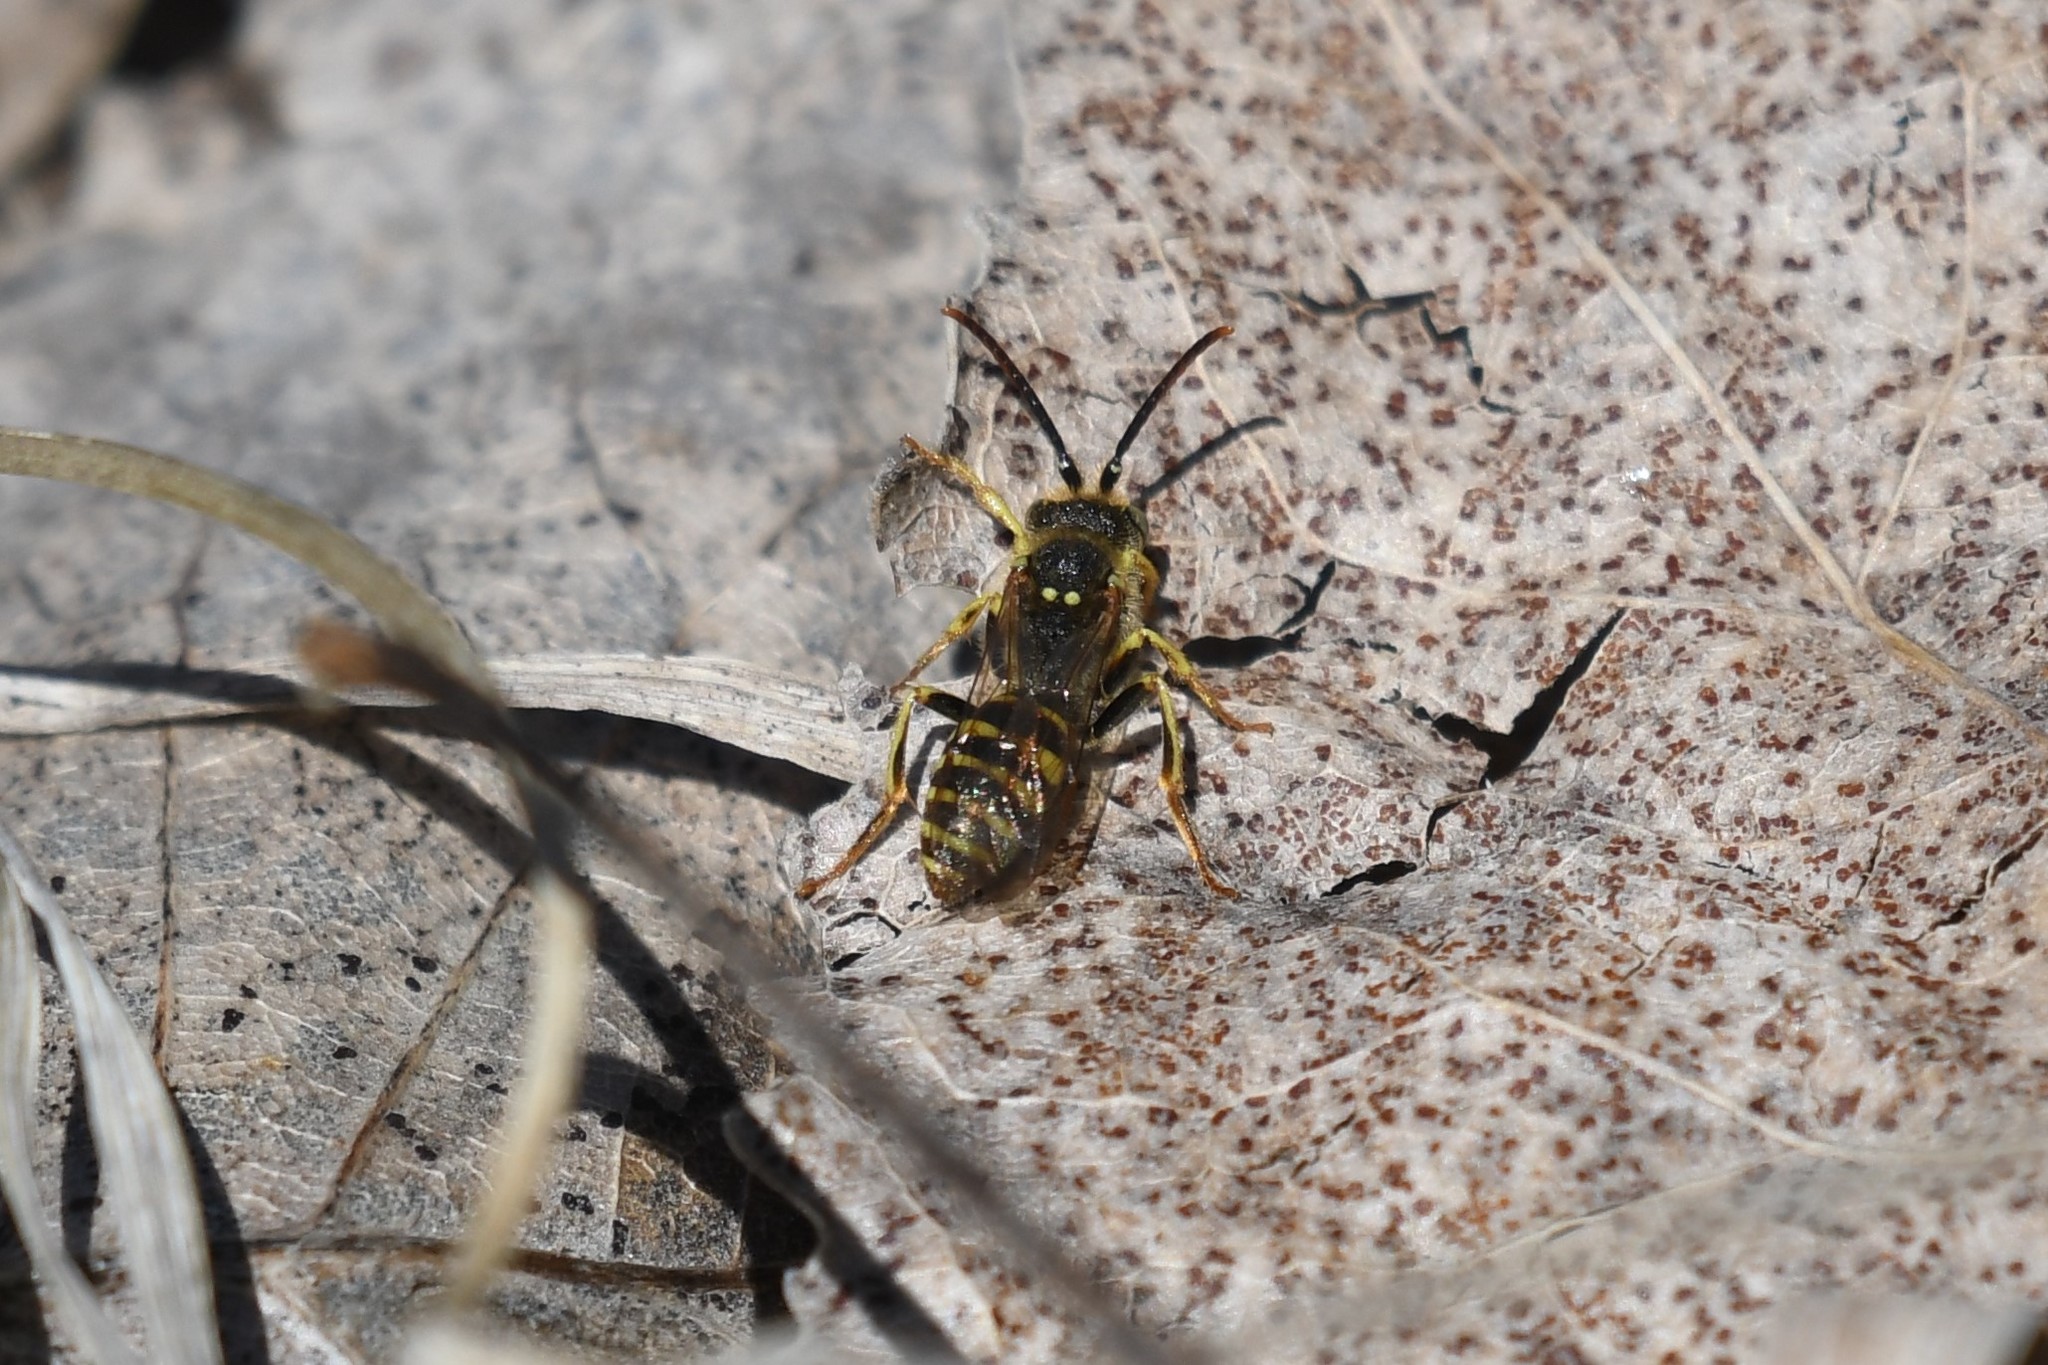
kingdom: Animalia
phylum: Arthropoda
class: Insecta
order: Hymenoptera
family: Apidae
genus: Nomada
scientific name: Nomada luteoloides
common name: Black-and-yellow nomad bee
